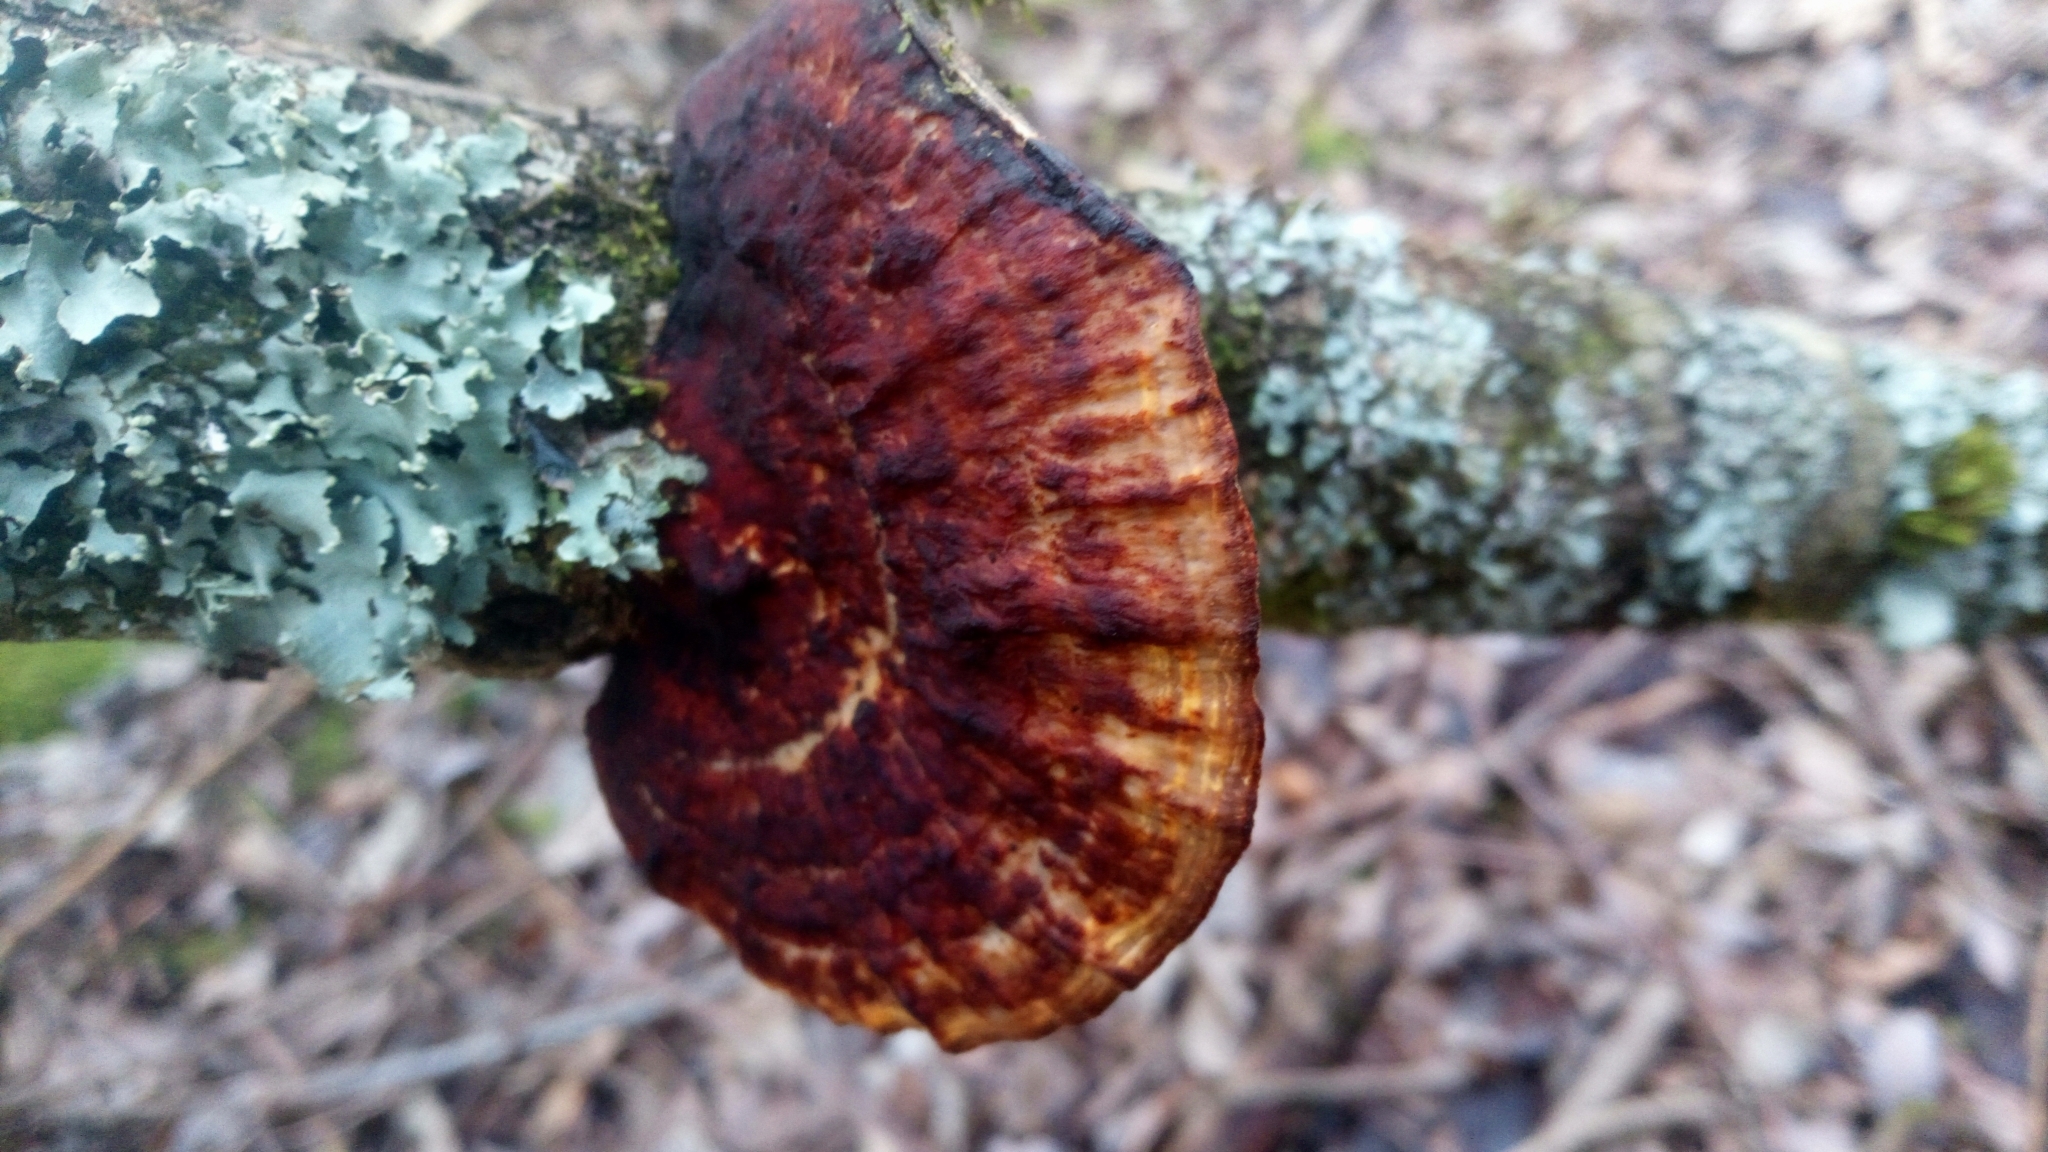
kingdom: Fungi
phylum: Basidiomycota
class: Agaricomycetes
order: Polyporales
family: Polyporaceae
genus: Daedaleopsis
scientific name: Daedaleopsis confragosa
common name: Blushing bracket
